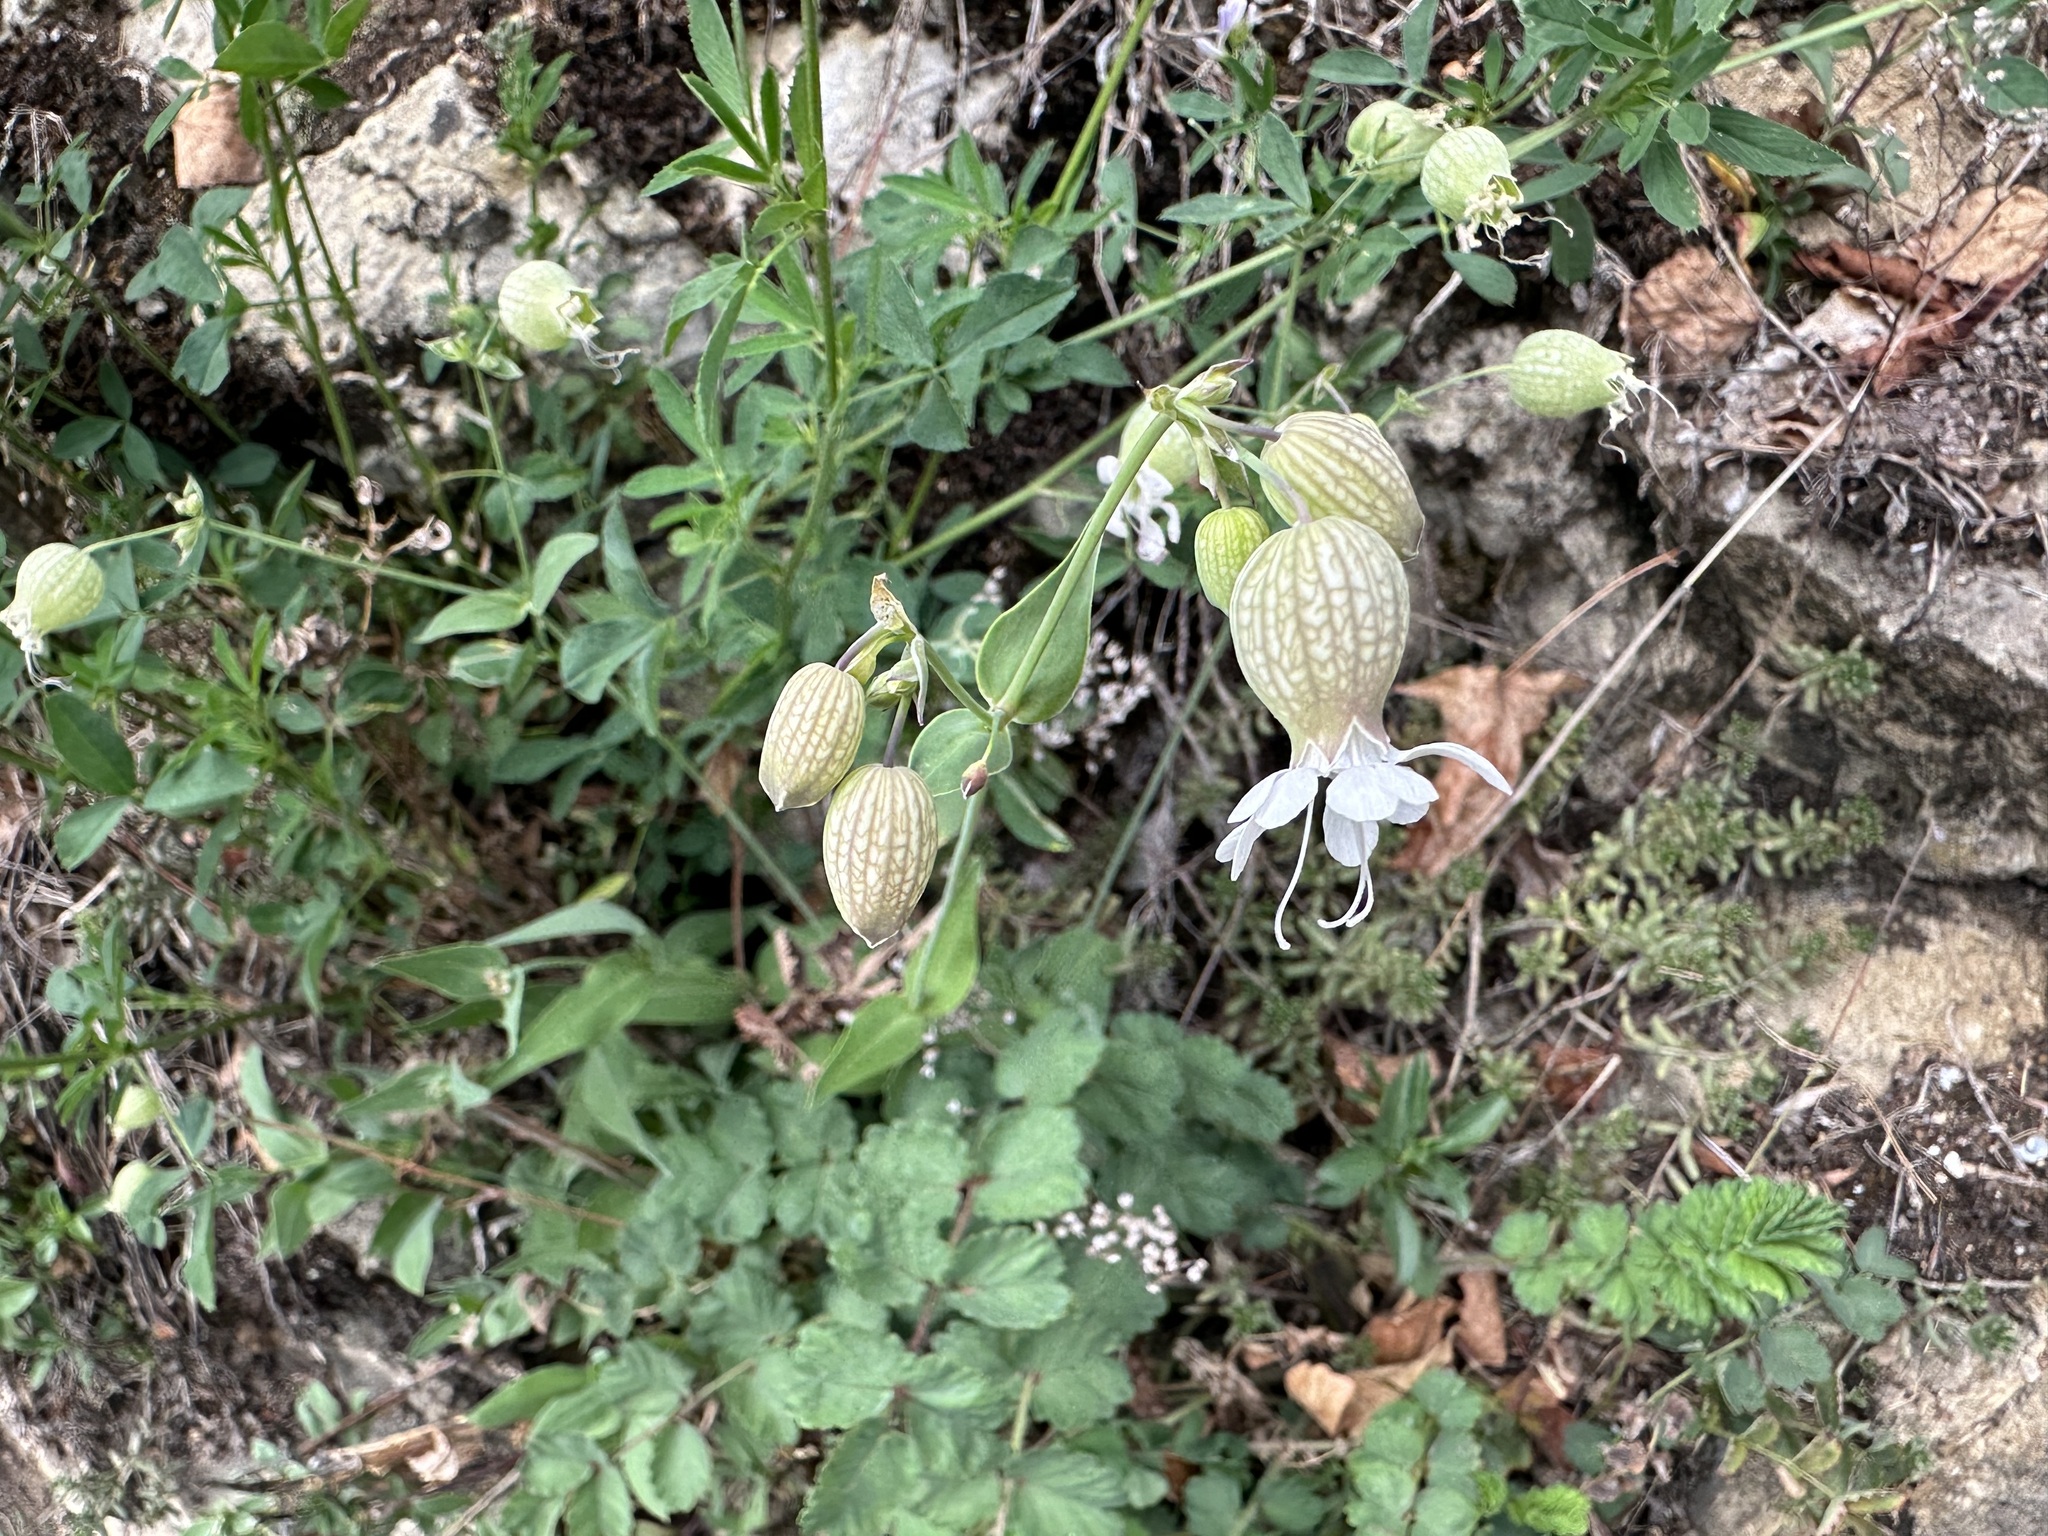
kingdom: Plantae
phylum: Tracheophyta
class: Magnoliopsida
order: Caryophyllales
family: Caryophyllaceae
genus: Silene
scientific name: Silene vulgaris
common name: Bladder campion
